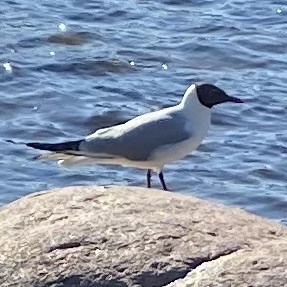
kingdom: Animalia
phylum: Chordata
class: Aves
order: Charadriiformes
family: Laridae
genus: Chroicocephalus
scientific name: Chroicocephalus ridibundus
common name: Black-headed gull
